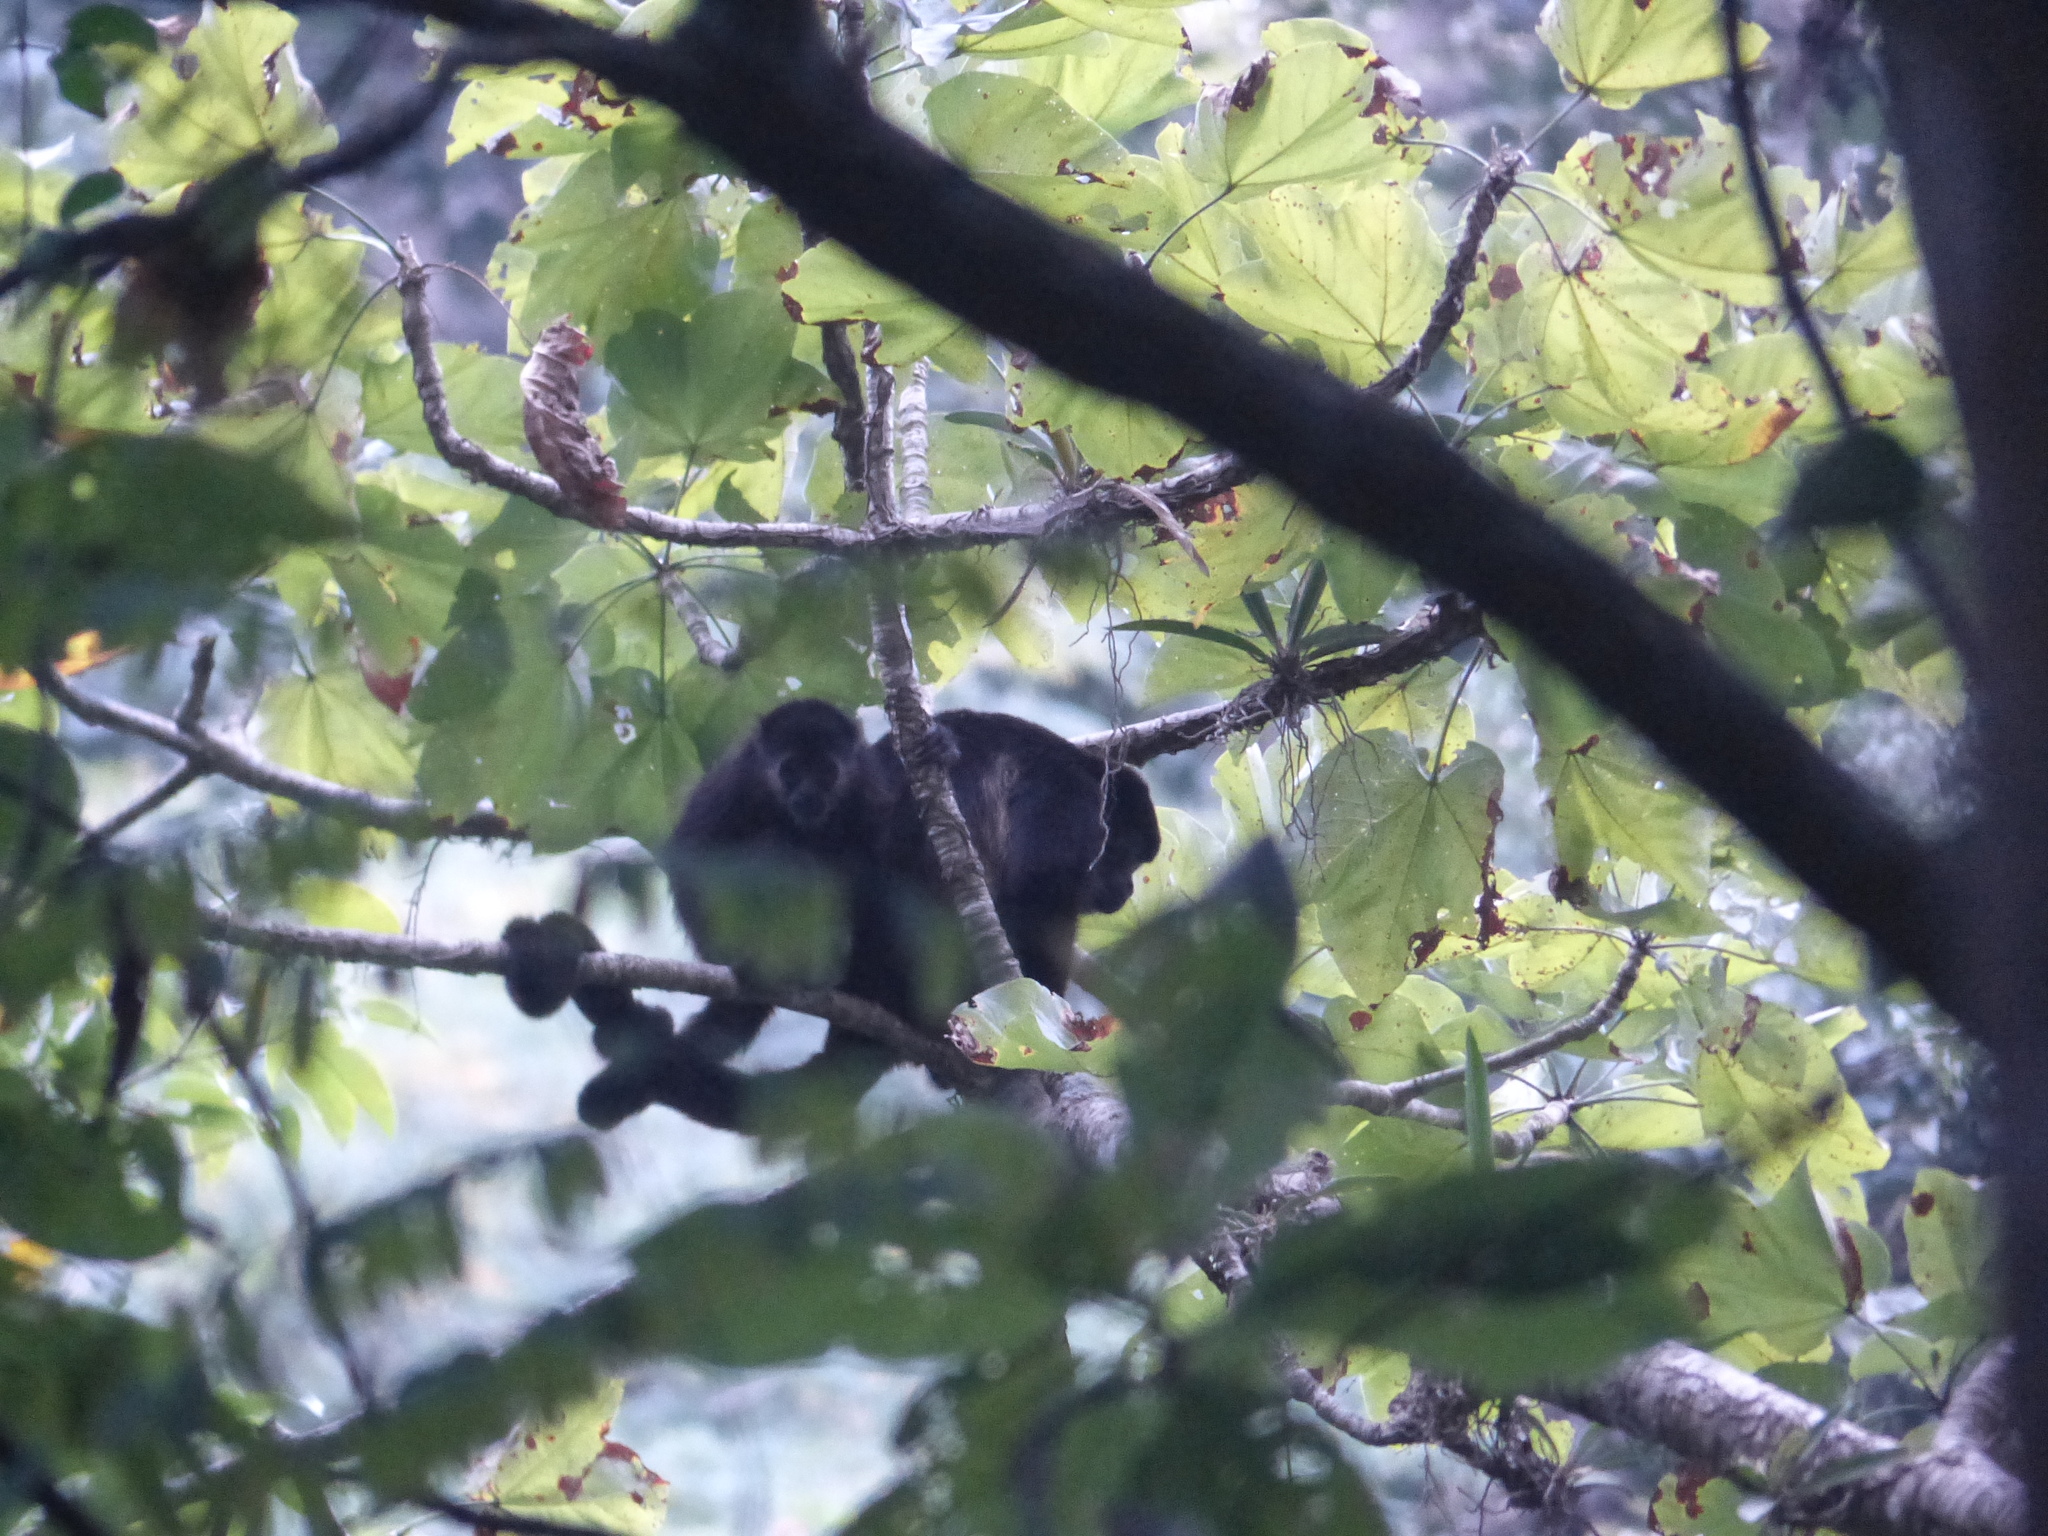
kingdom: Animalia
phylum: Chordata
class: Mammalia
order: Primates
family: Atelidae
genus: Alouatta
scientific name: Alouatta palliata
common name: Mantled howler
